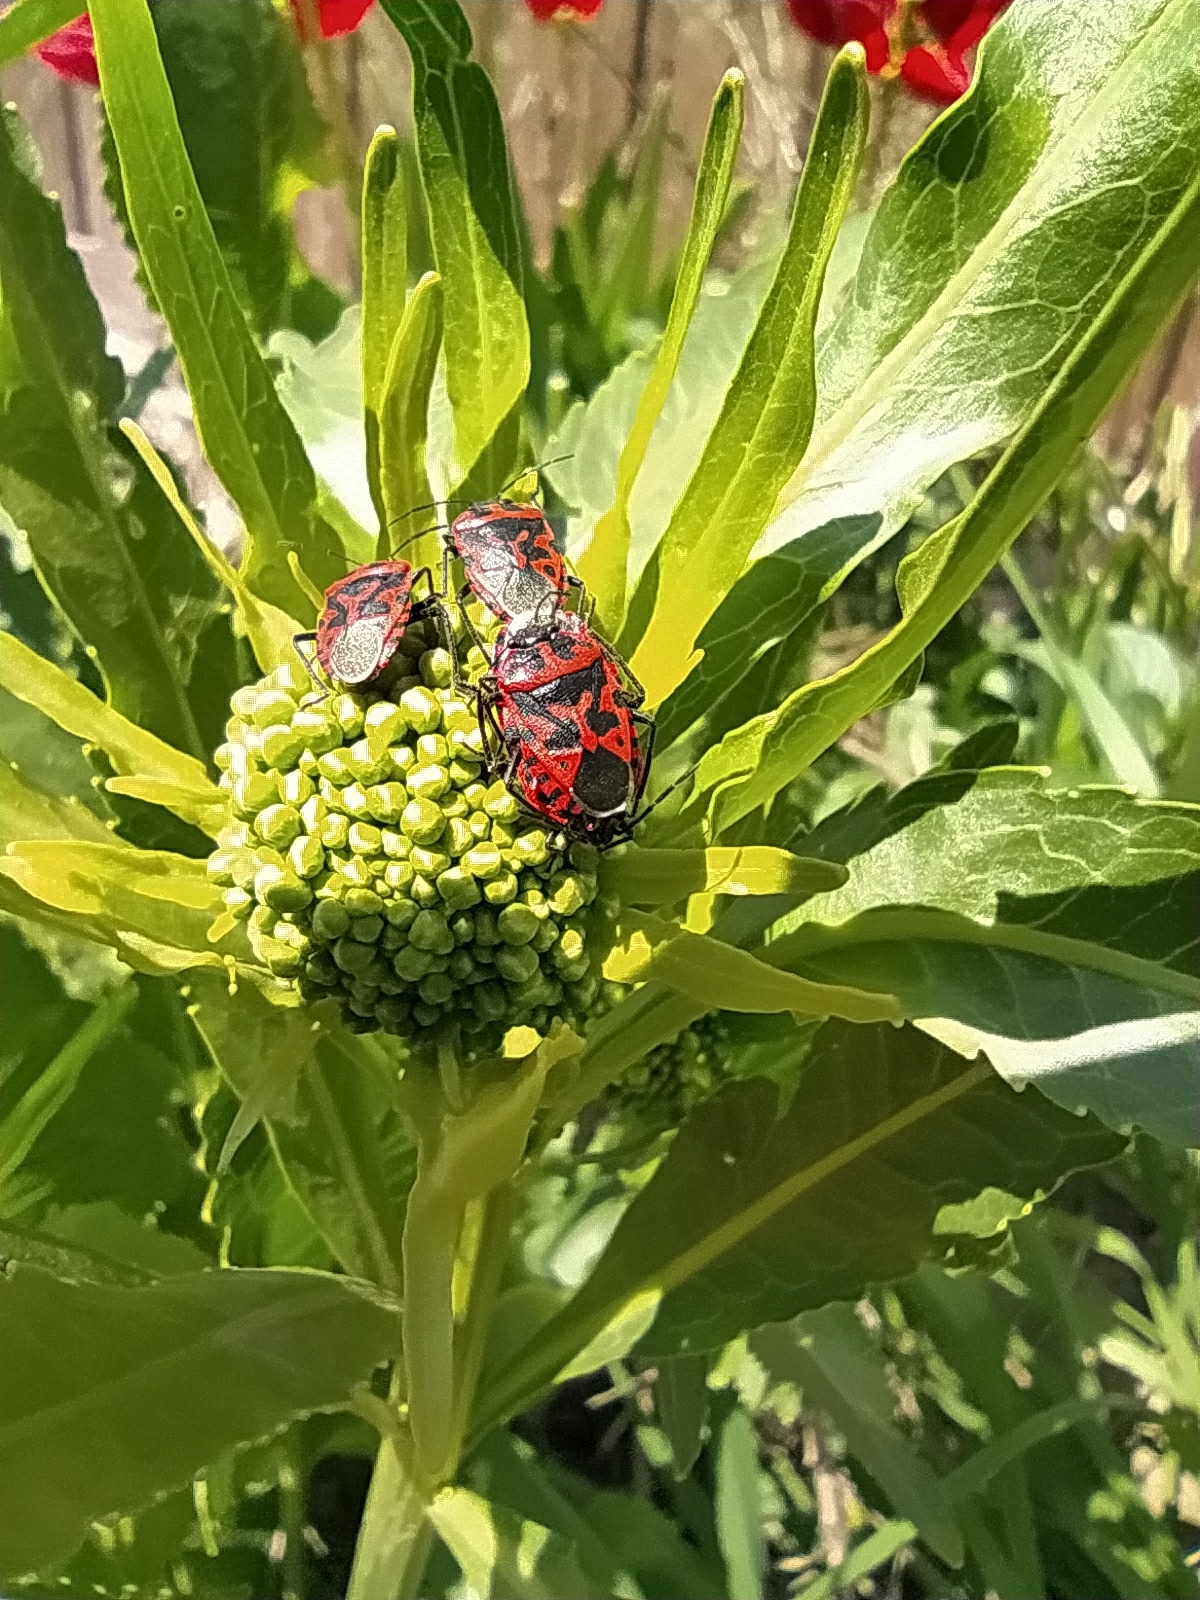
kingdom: Animalia
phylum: Arthropoda
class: Insecta
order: Hemiptera
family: Pentatomidae
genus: Eurydema
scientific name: Eurydema ventralis
